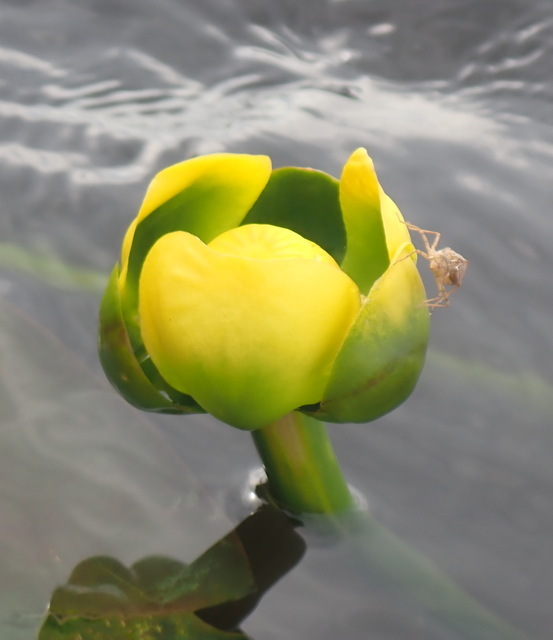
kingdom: Plantae
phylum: Tracheophyta
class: Magnoliopsida
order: Nymphaeales
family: Nymphaeaceae
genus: Nuphar
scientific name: Nuphar advena
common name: Spatter-dock
